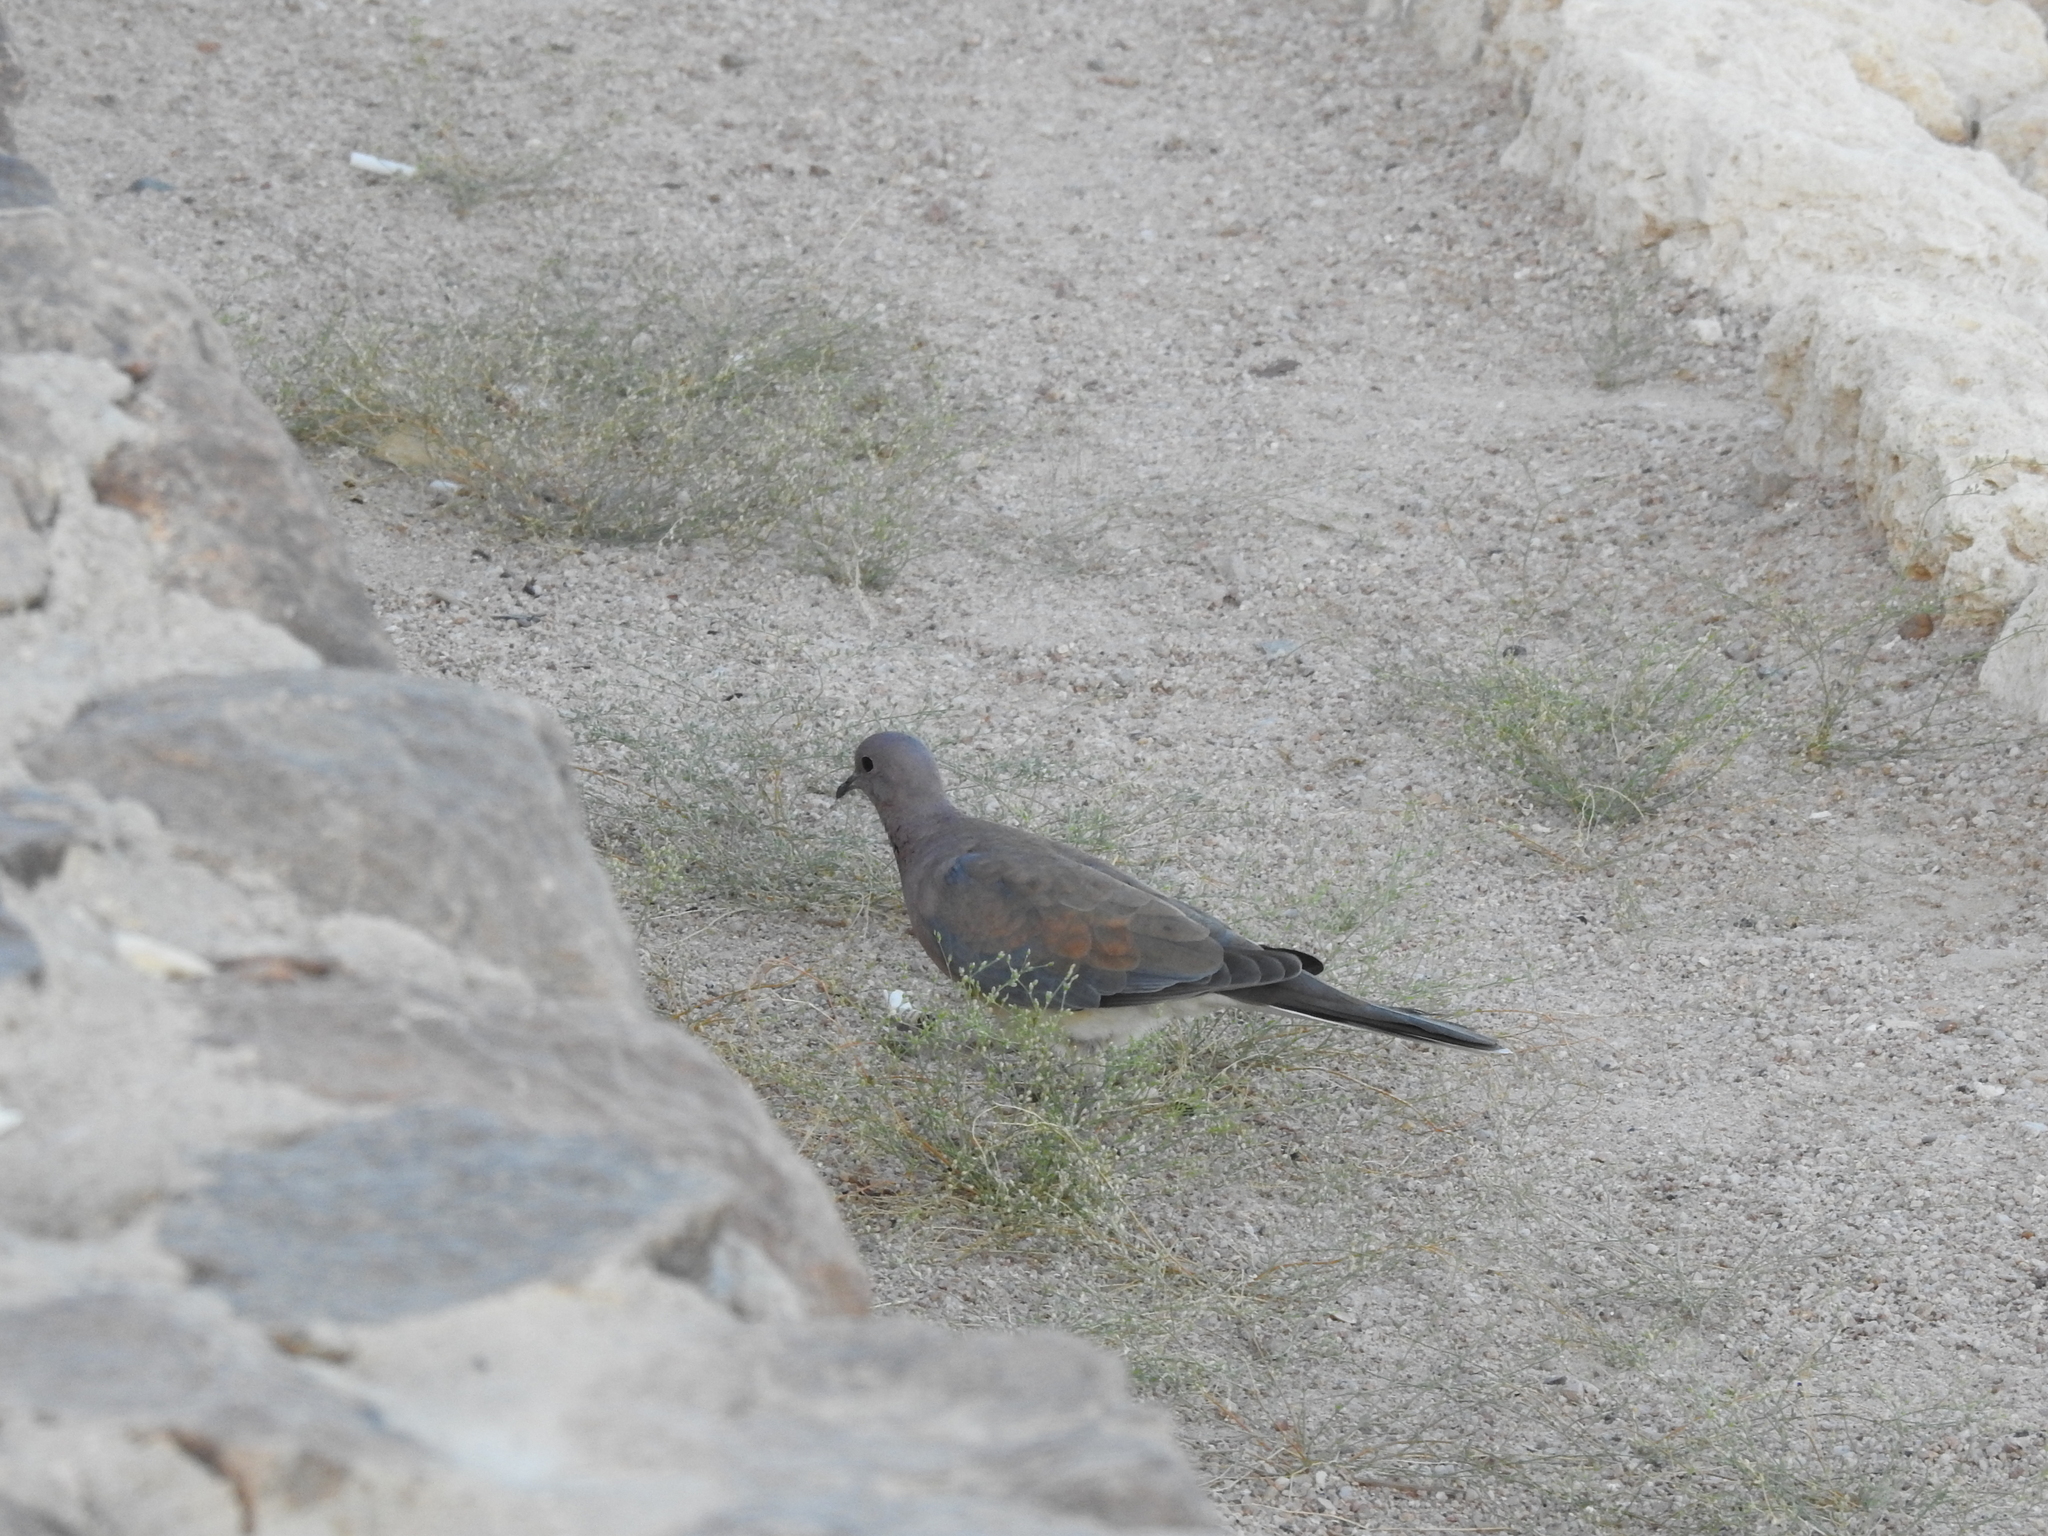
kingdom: Animalia
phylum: Chordata
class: Aves
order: Columbiformes
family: Columbidae
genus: Spilopelia
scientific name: Spilopelia senegalensis
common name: Laughing dove
